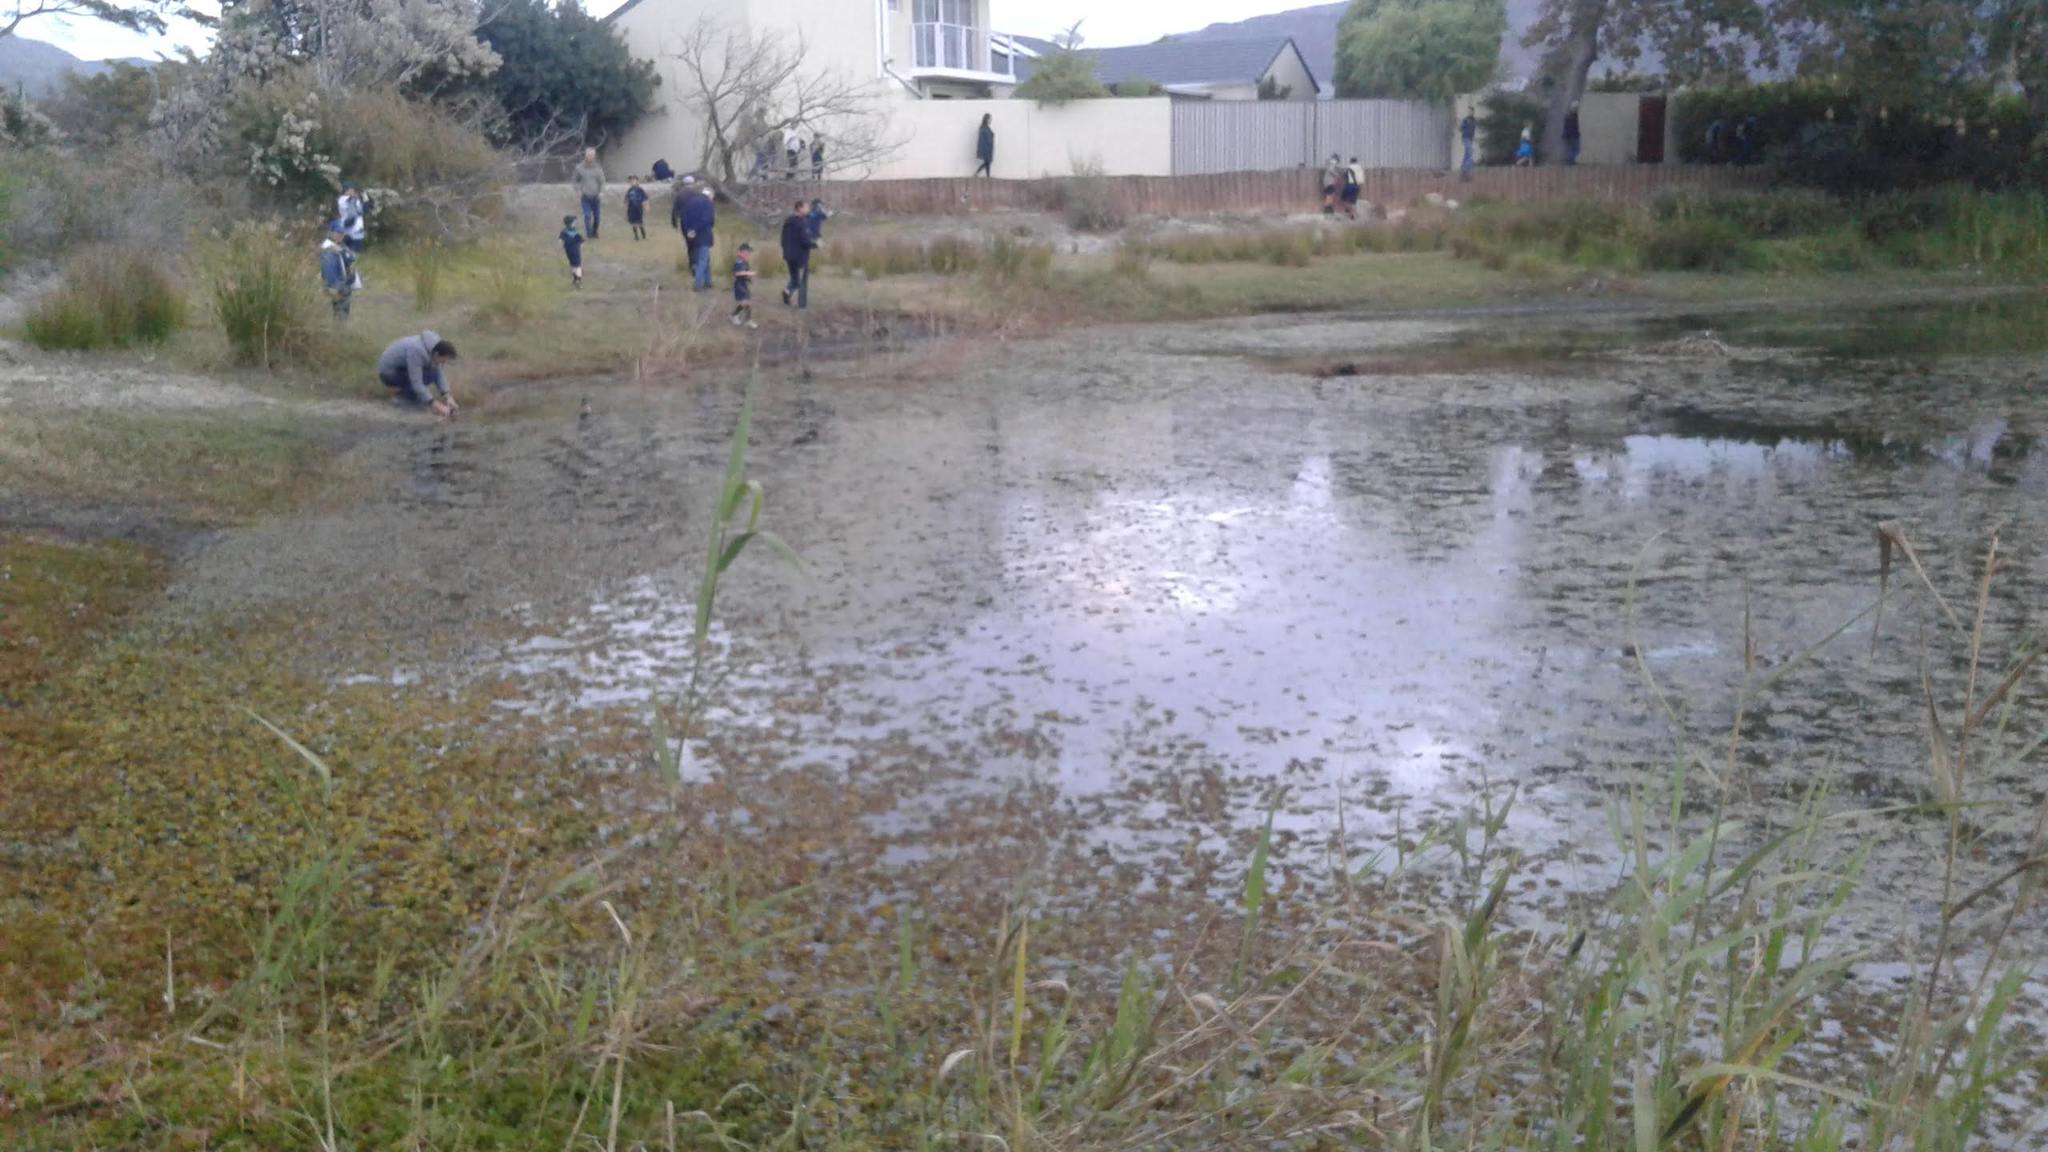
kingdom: Plantae
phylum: Tracheophyta
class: Magnoliopsida
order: Myrtales
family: Onagraceae
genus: Ludwigia
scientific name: Ludwigia adscendens
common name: Creeping water primrose
